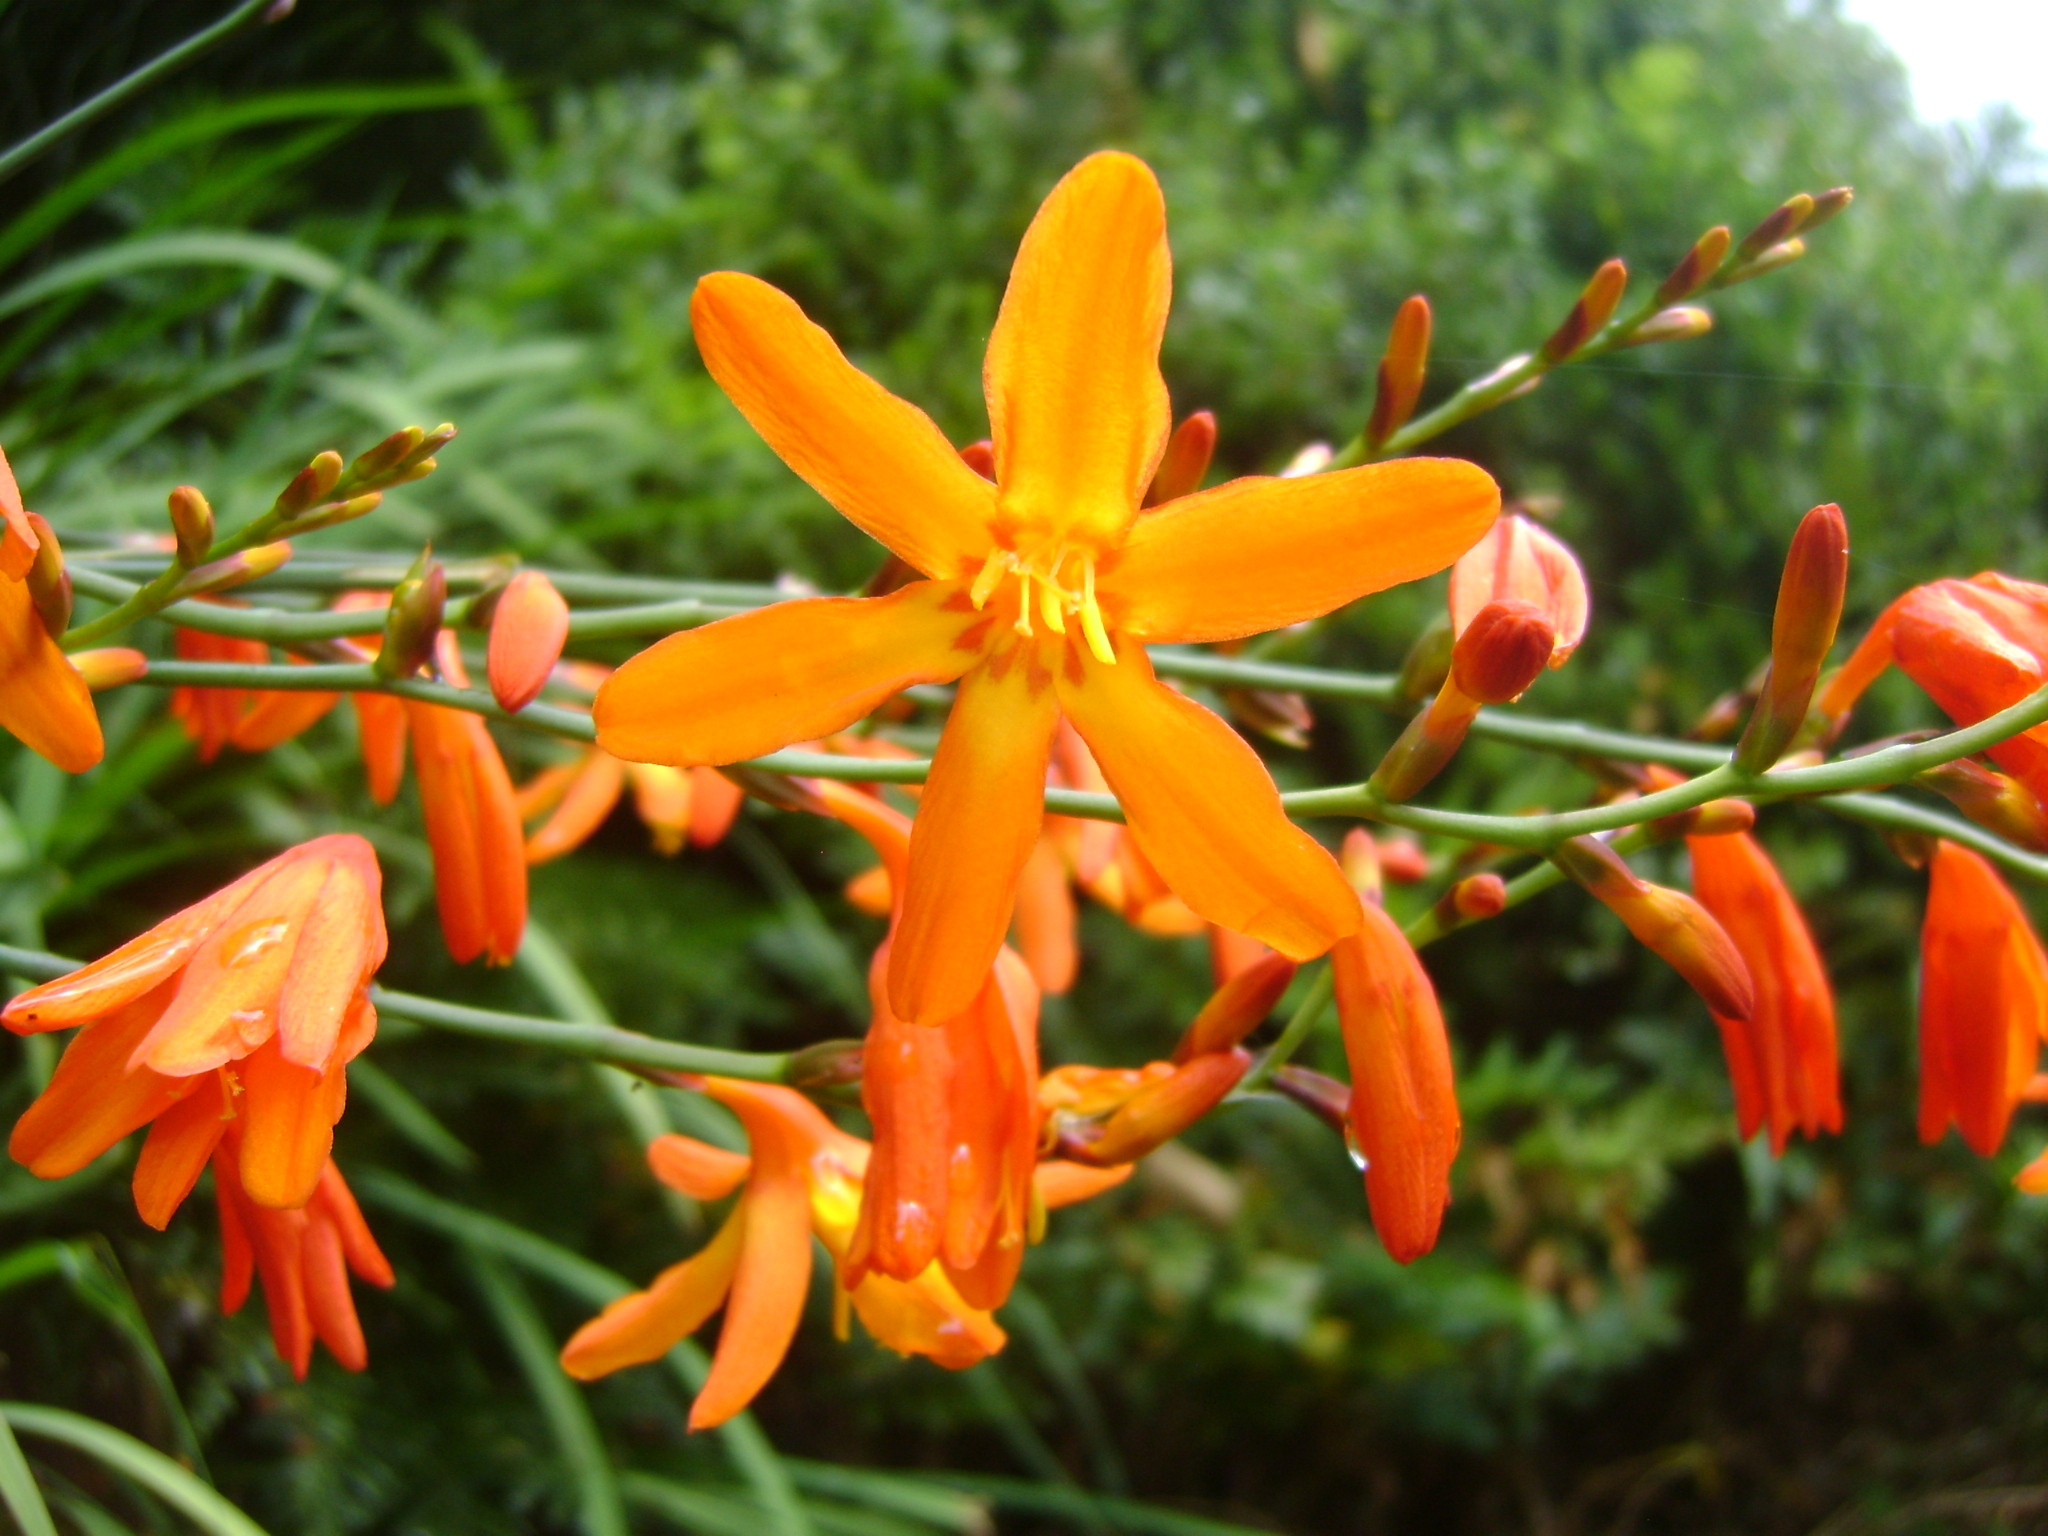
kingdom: Plantae
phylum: Tracheophyta
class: Liliopsida
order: Asparagales
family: Iridaceae
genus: Crocosmia
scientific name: Crocosmia crocosmiiflora
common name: Montbretia
